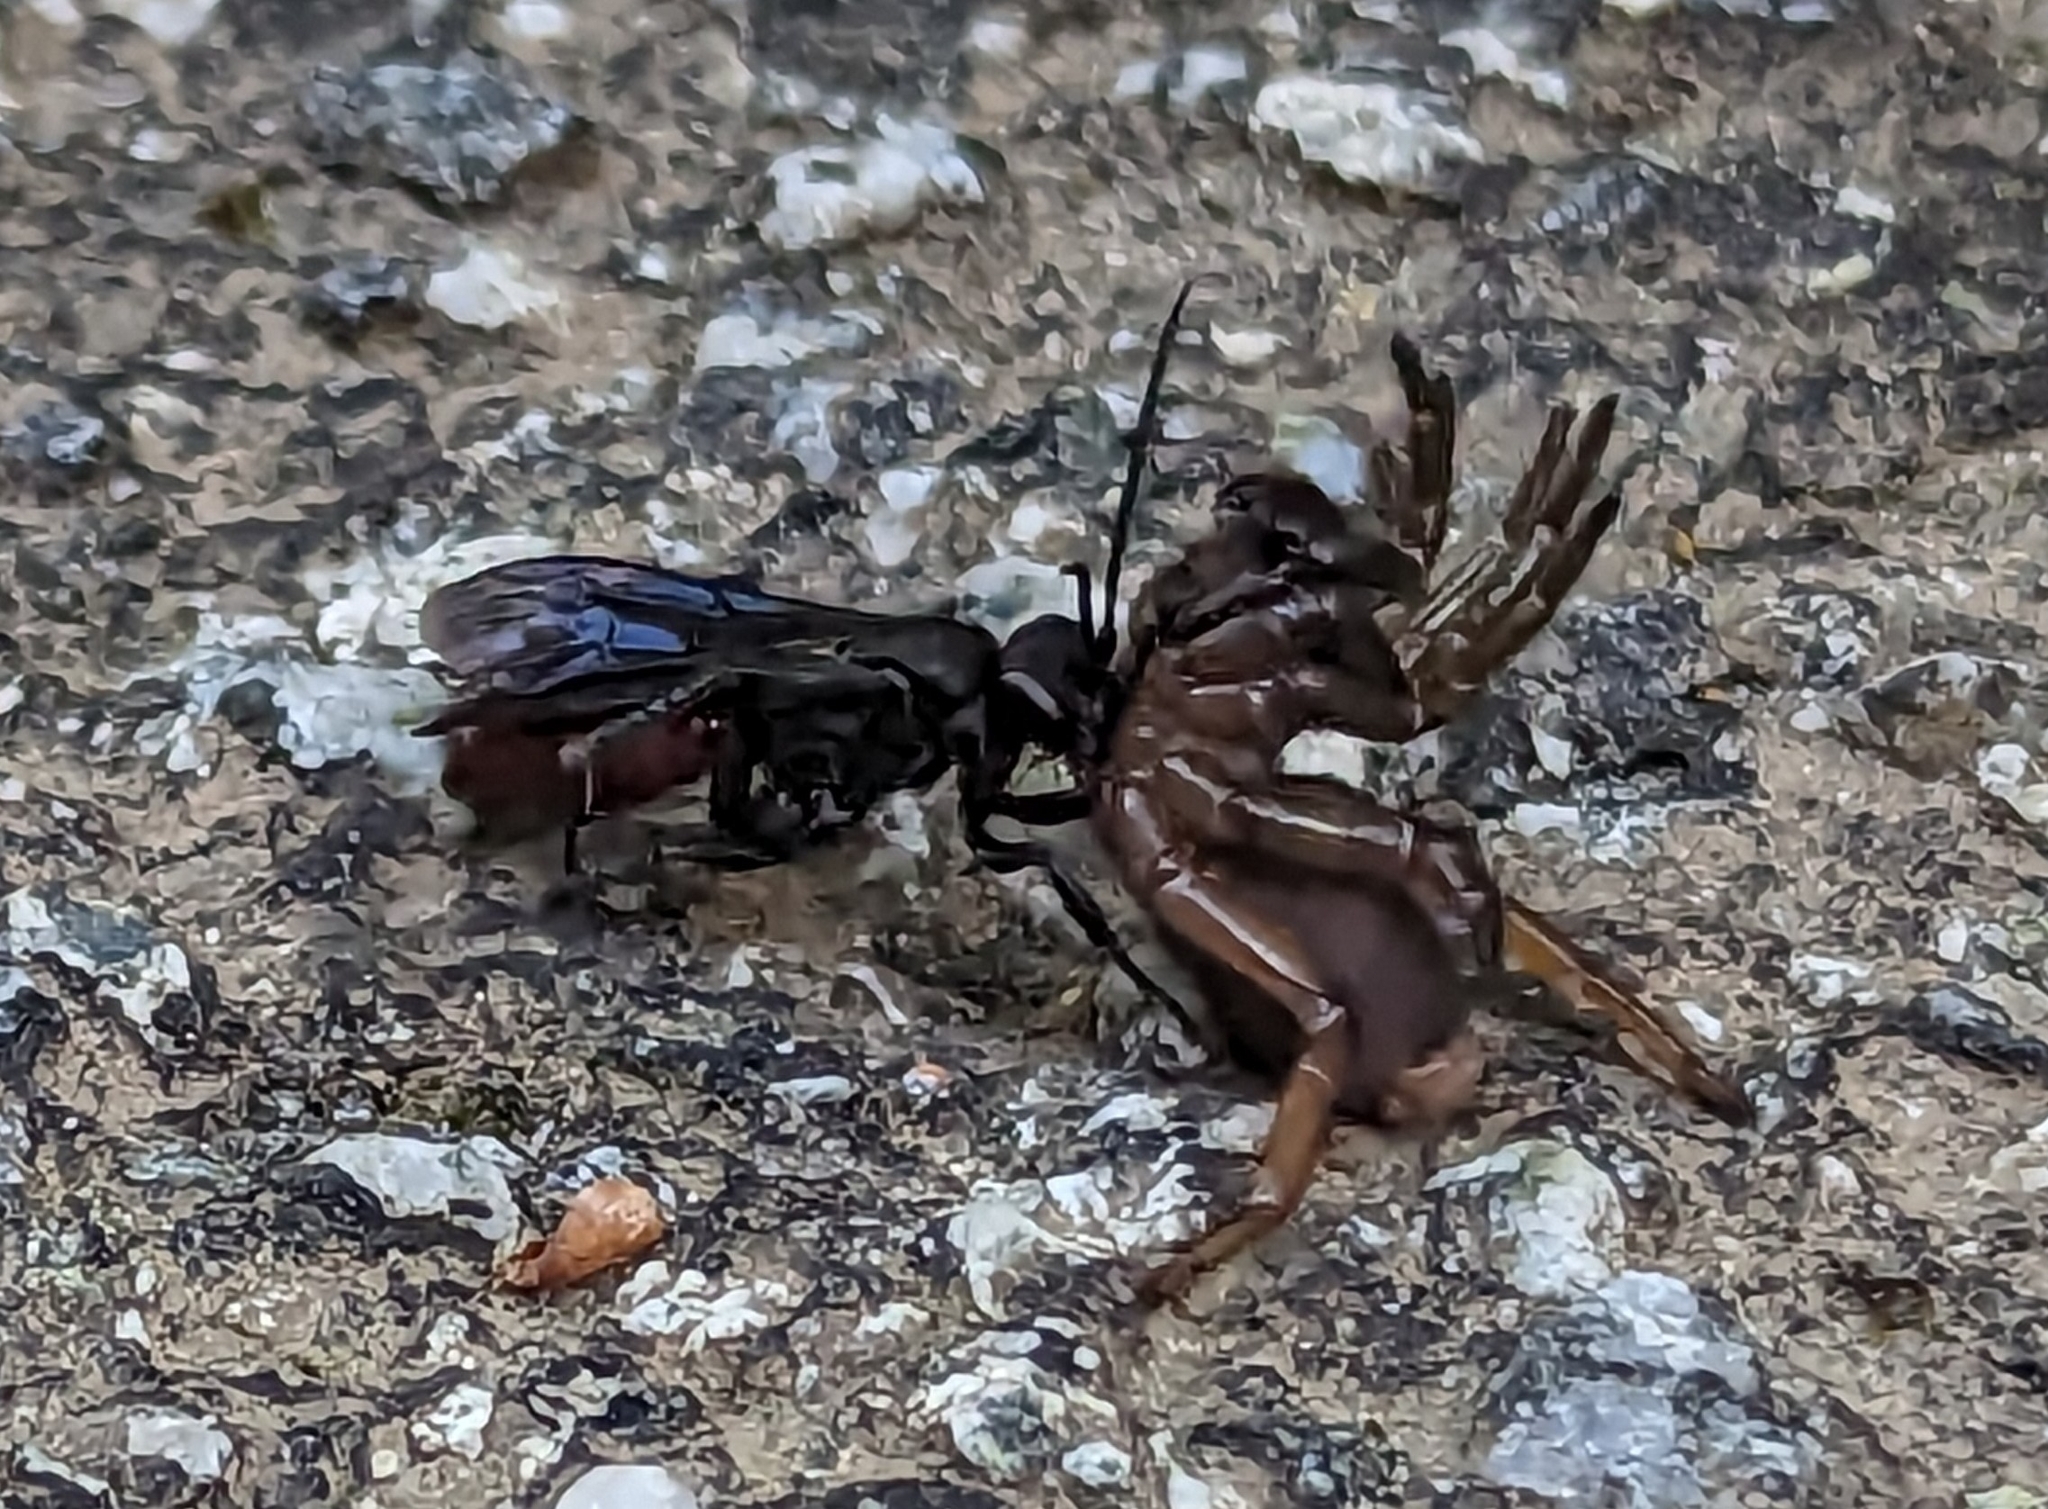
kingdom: Animalia
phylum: Arthropoda
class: Insecta
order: Hymenoptera
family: Pompilidae
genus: Priocnemis
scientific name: Priocnemis oregona
